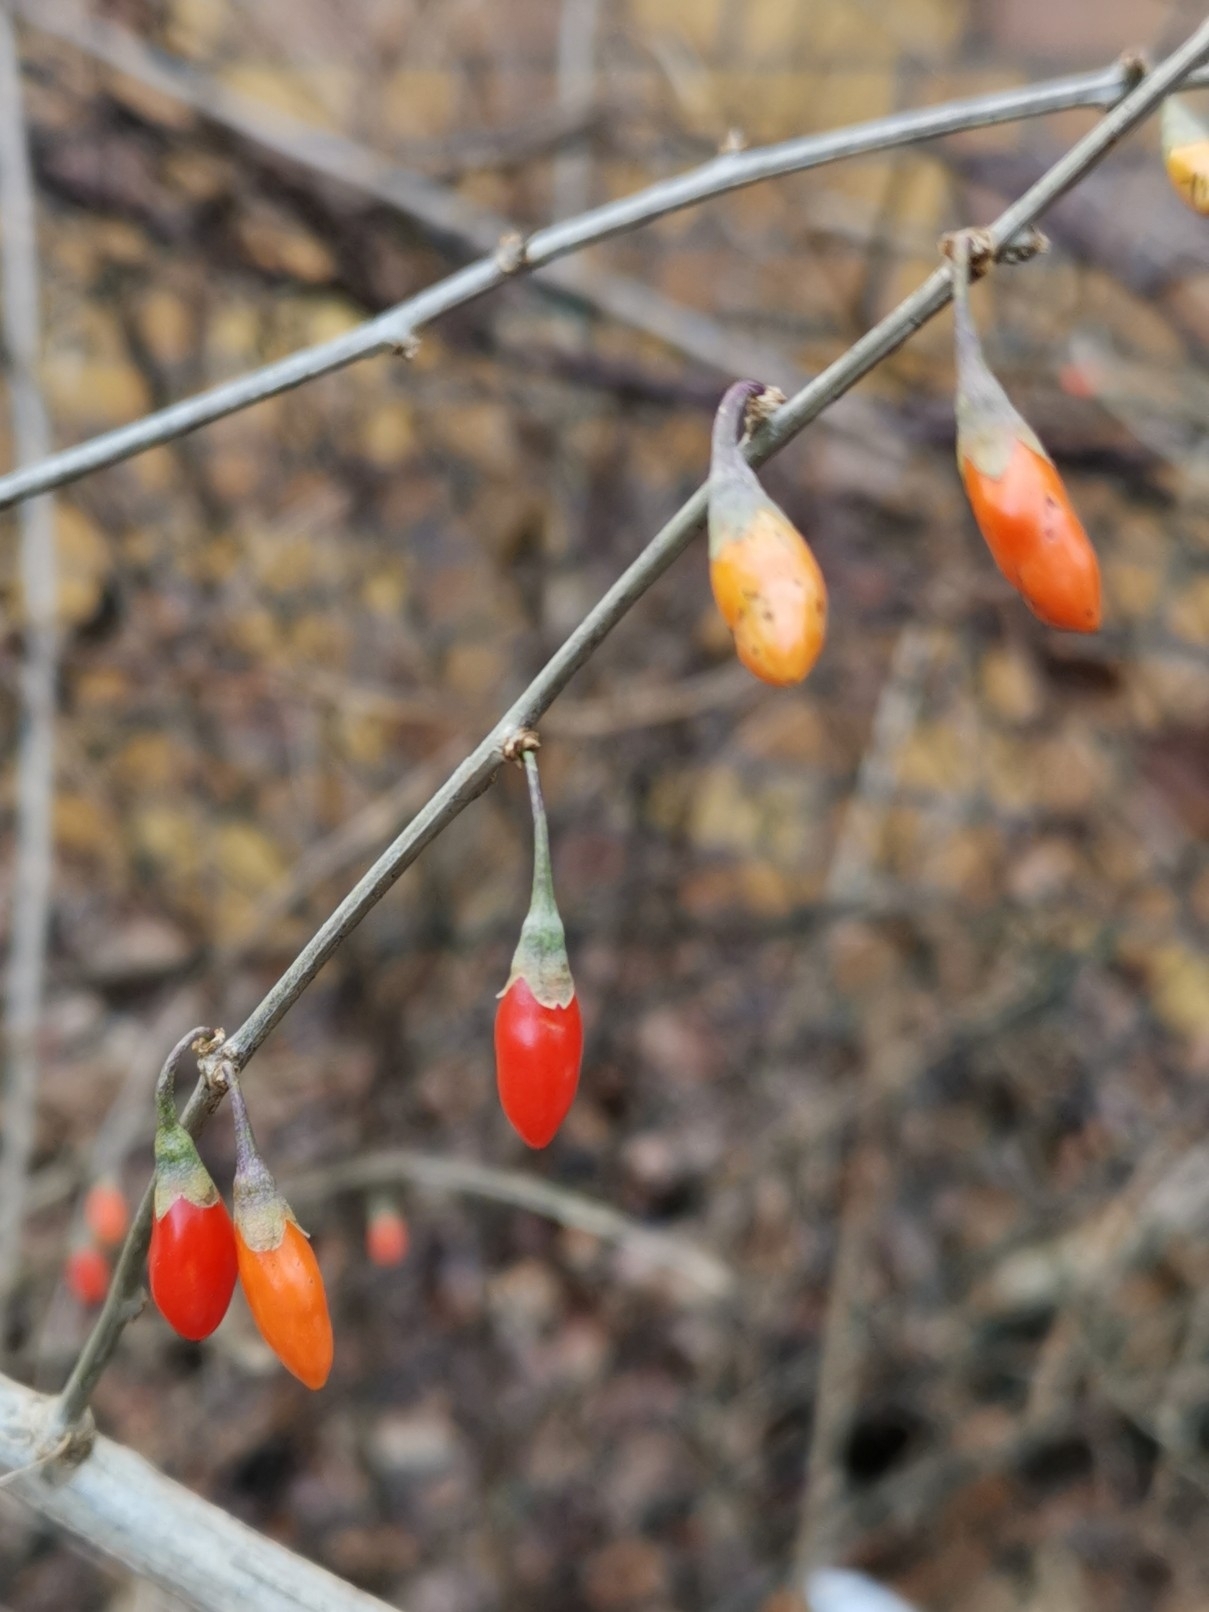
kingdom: Plantae
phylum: Tracheophyta
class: Magnoliopsida
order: Solanales
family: Solanaceae
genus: Lycium
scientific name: Lycium barbarum
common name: Duke of argyll's teaplant
